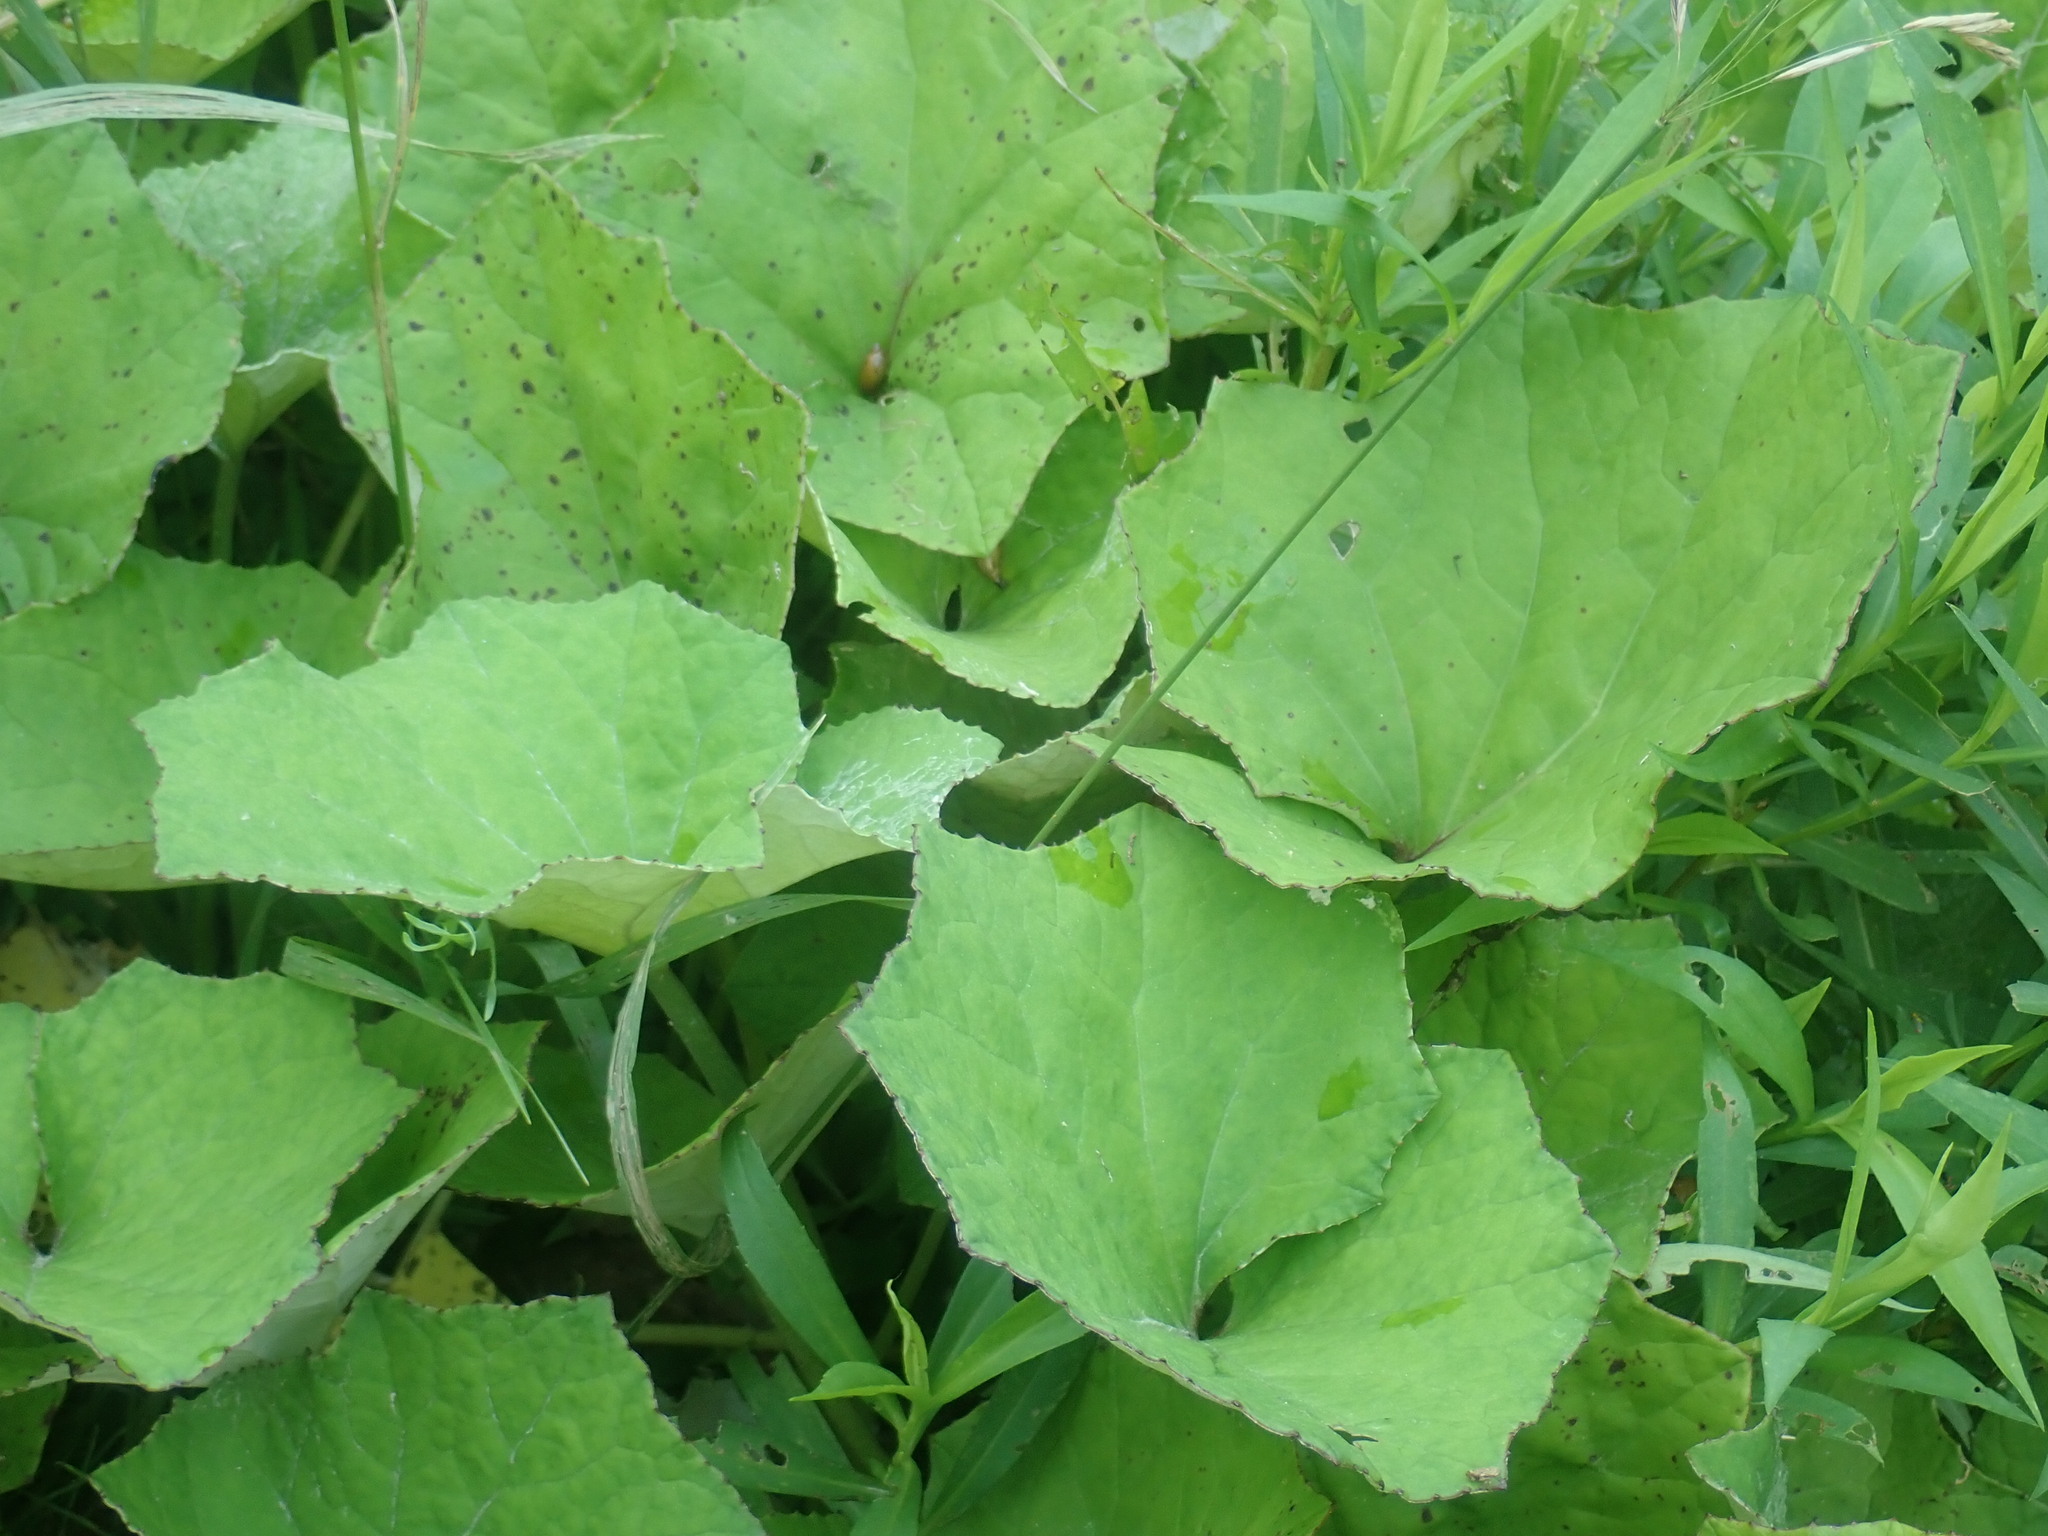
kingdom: Plantae
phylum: Tracheophyta
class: Magnoliopsida
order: Asterales
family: Asteraceae
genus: Tussilago
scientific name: Tussilago farfara
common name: Coltsfoot
